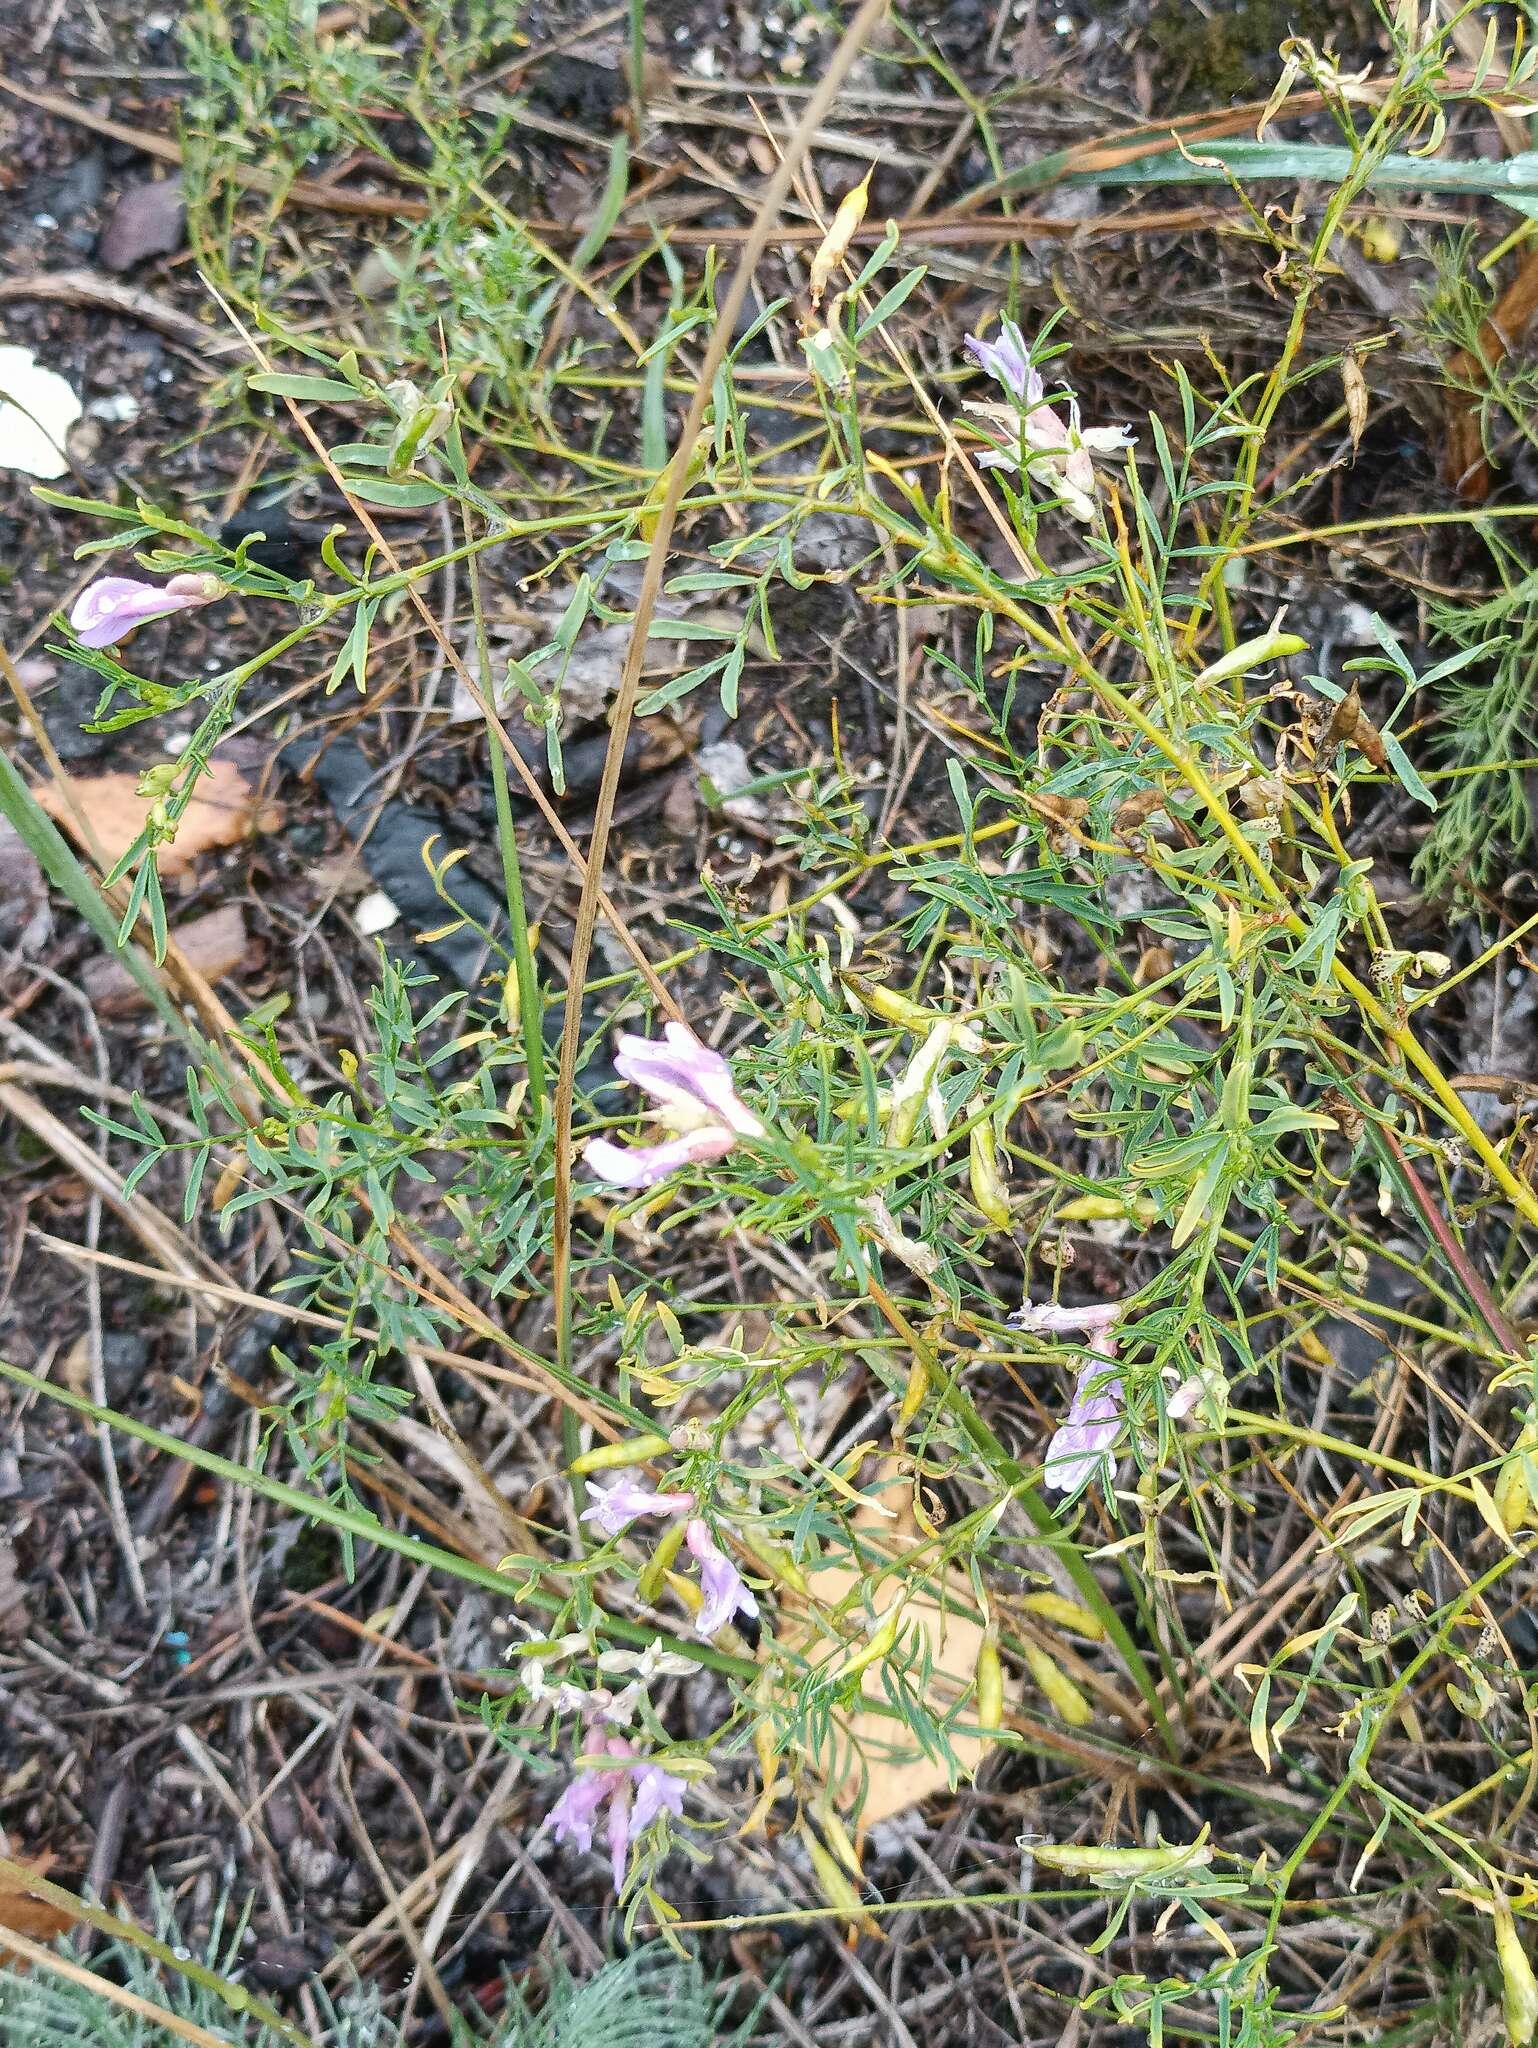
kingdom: Plantae
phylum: Tracheophyta
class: Magnoliopsida
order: Fabales
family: Fabaceae
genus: Astragalus
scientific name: Astragalus arenarius
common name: Arenarious milk-vetch
